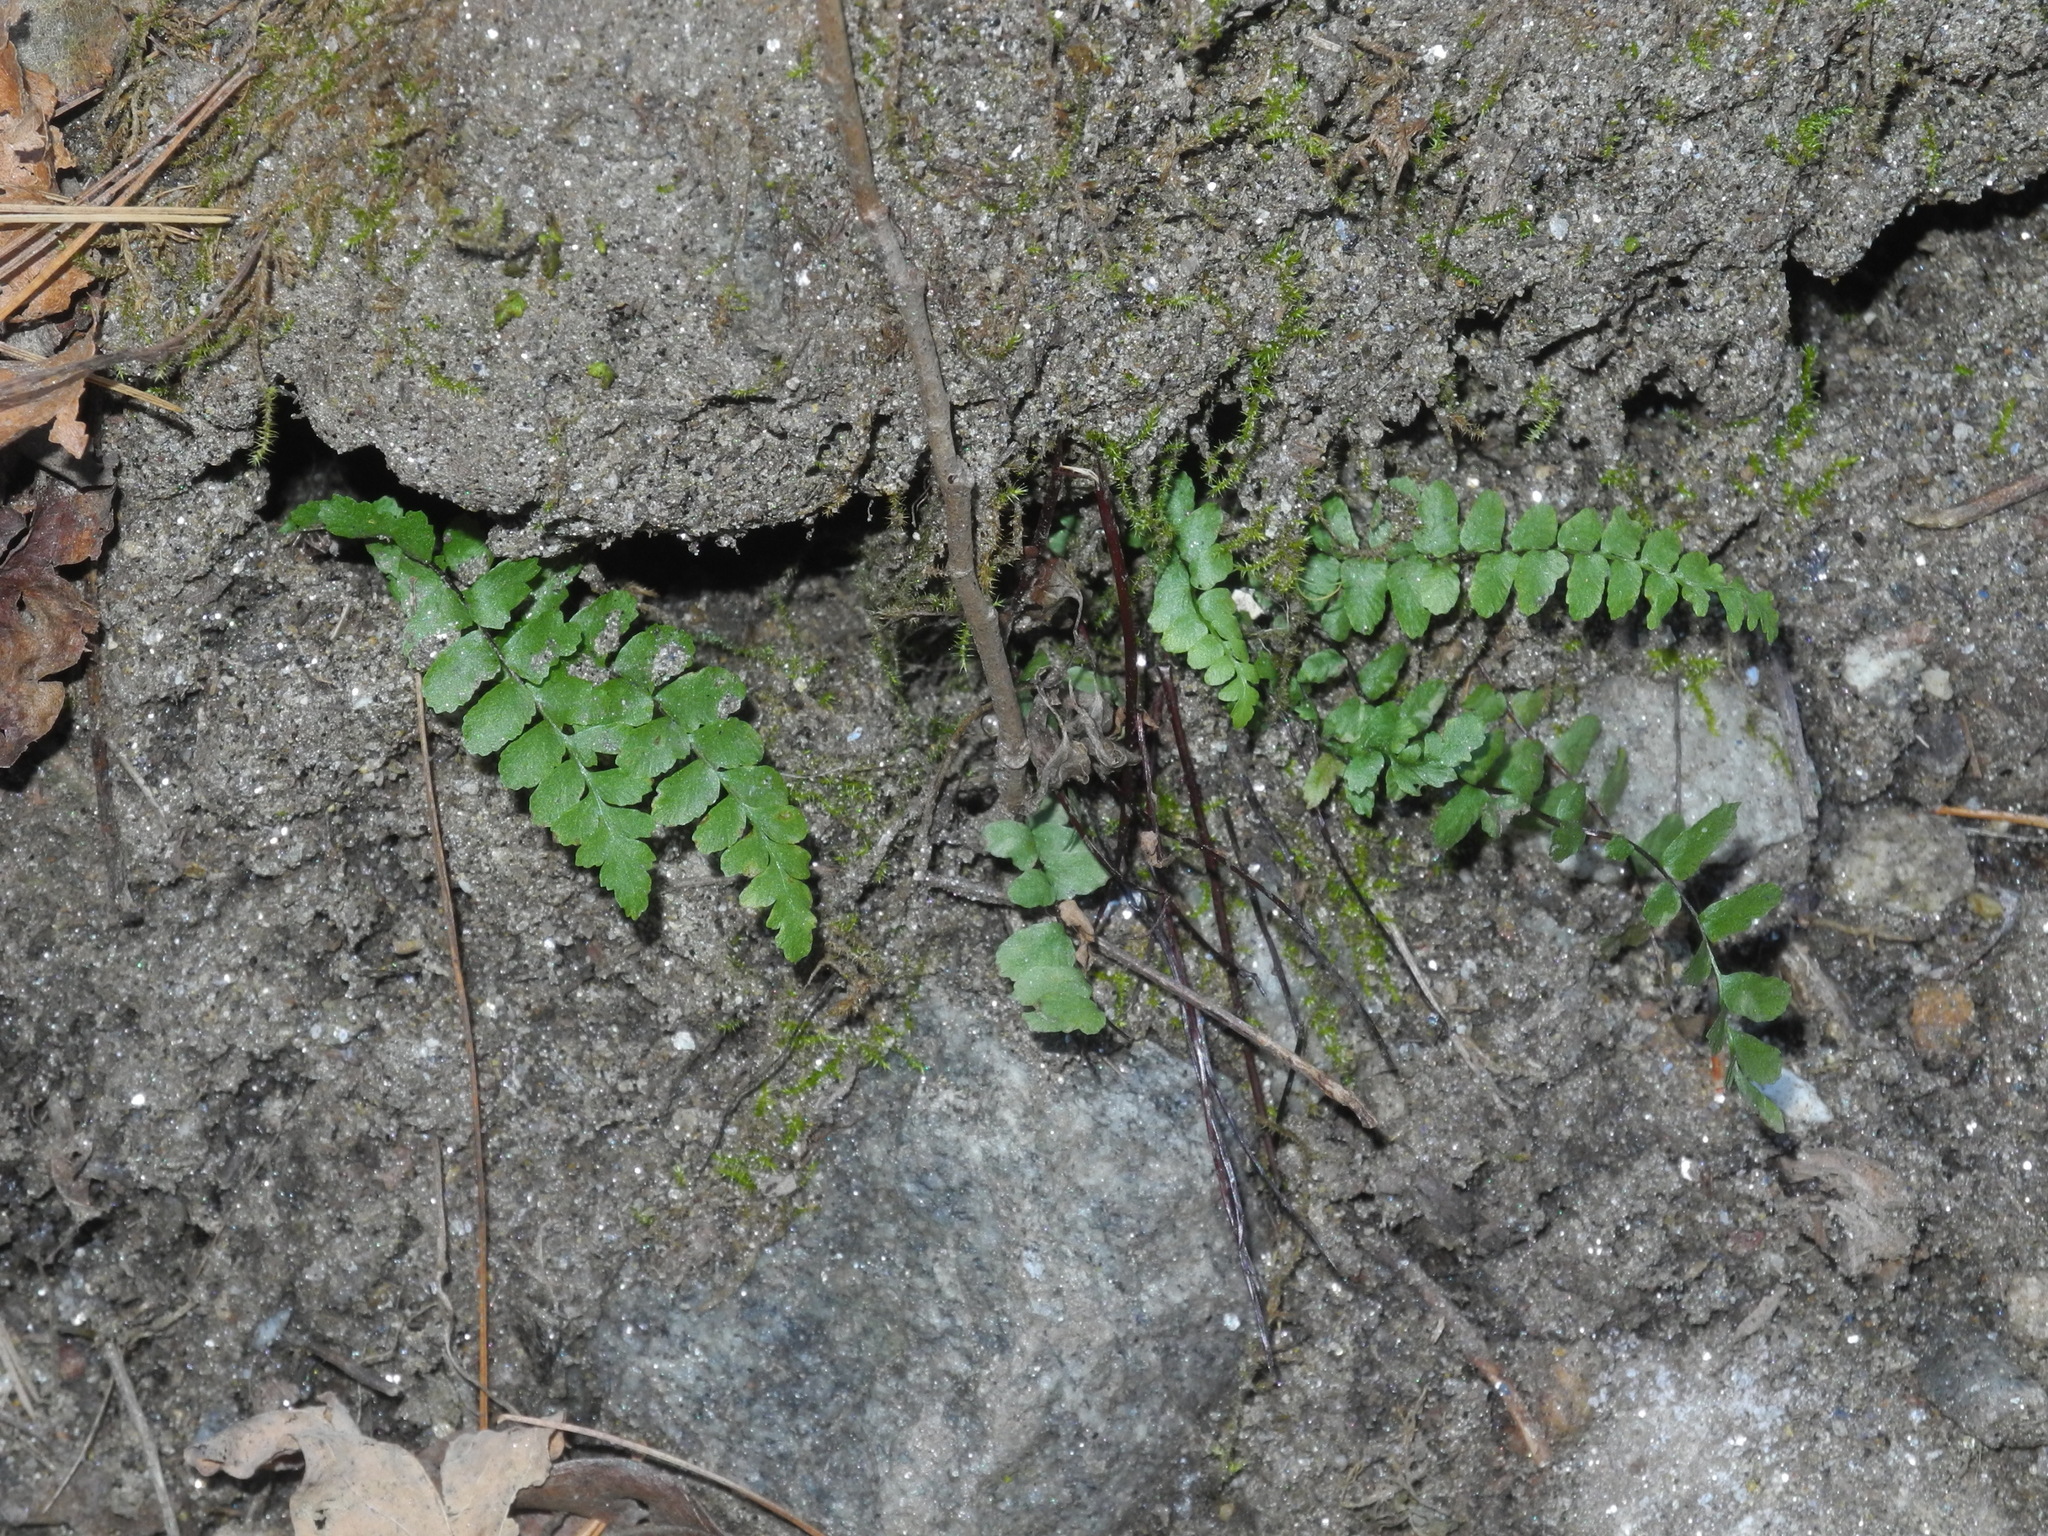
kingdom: Plantae
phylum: Tracheophyta
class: Polypodiopsida
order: Polypodiales
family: Aspleniaceae
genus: Asplenium
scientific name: Asplenium platyneuron
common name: Ebony spleenwort
